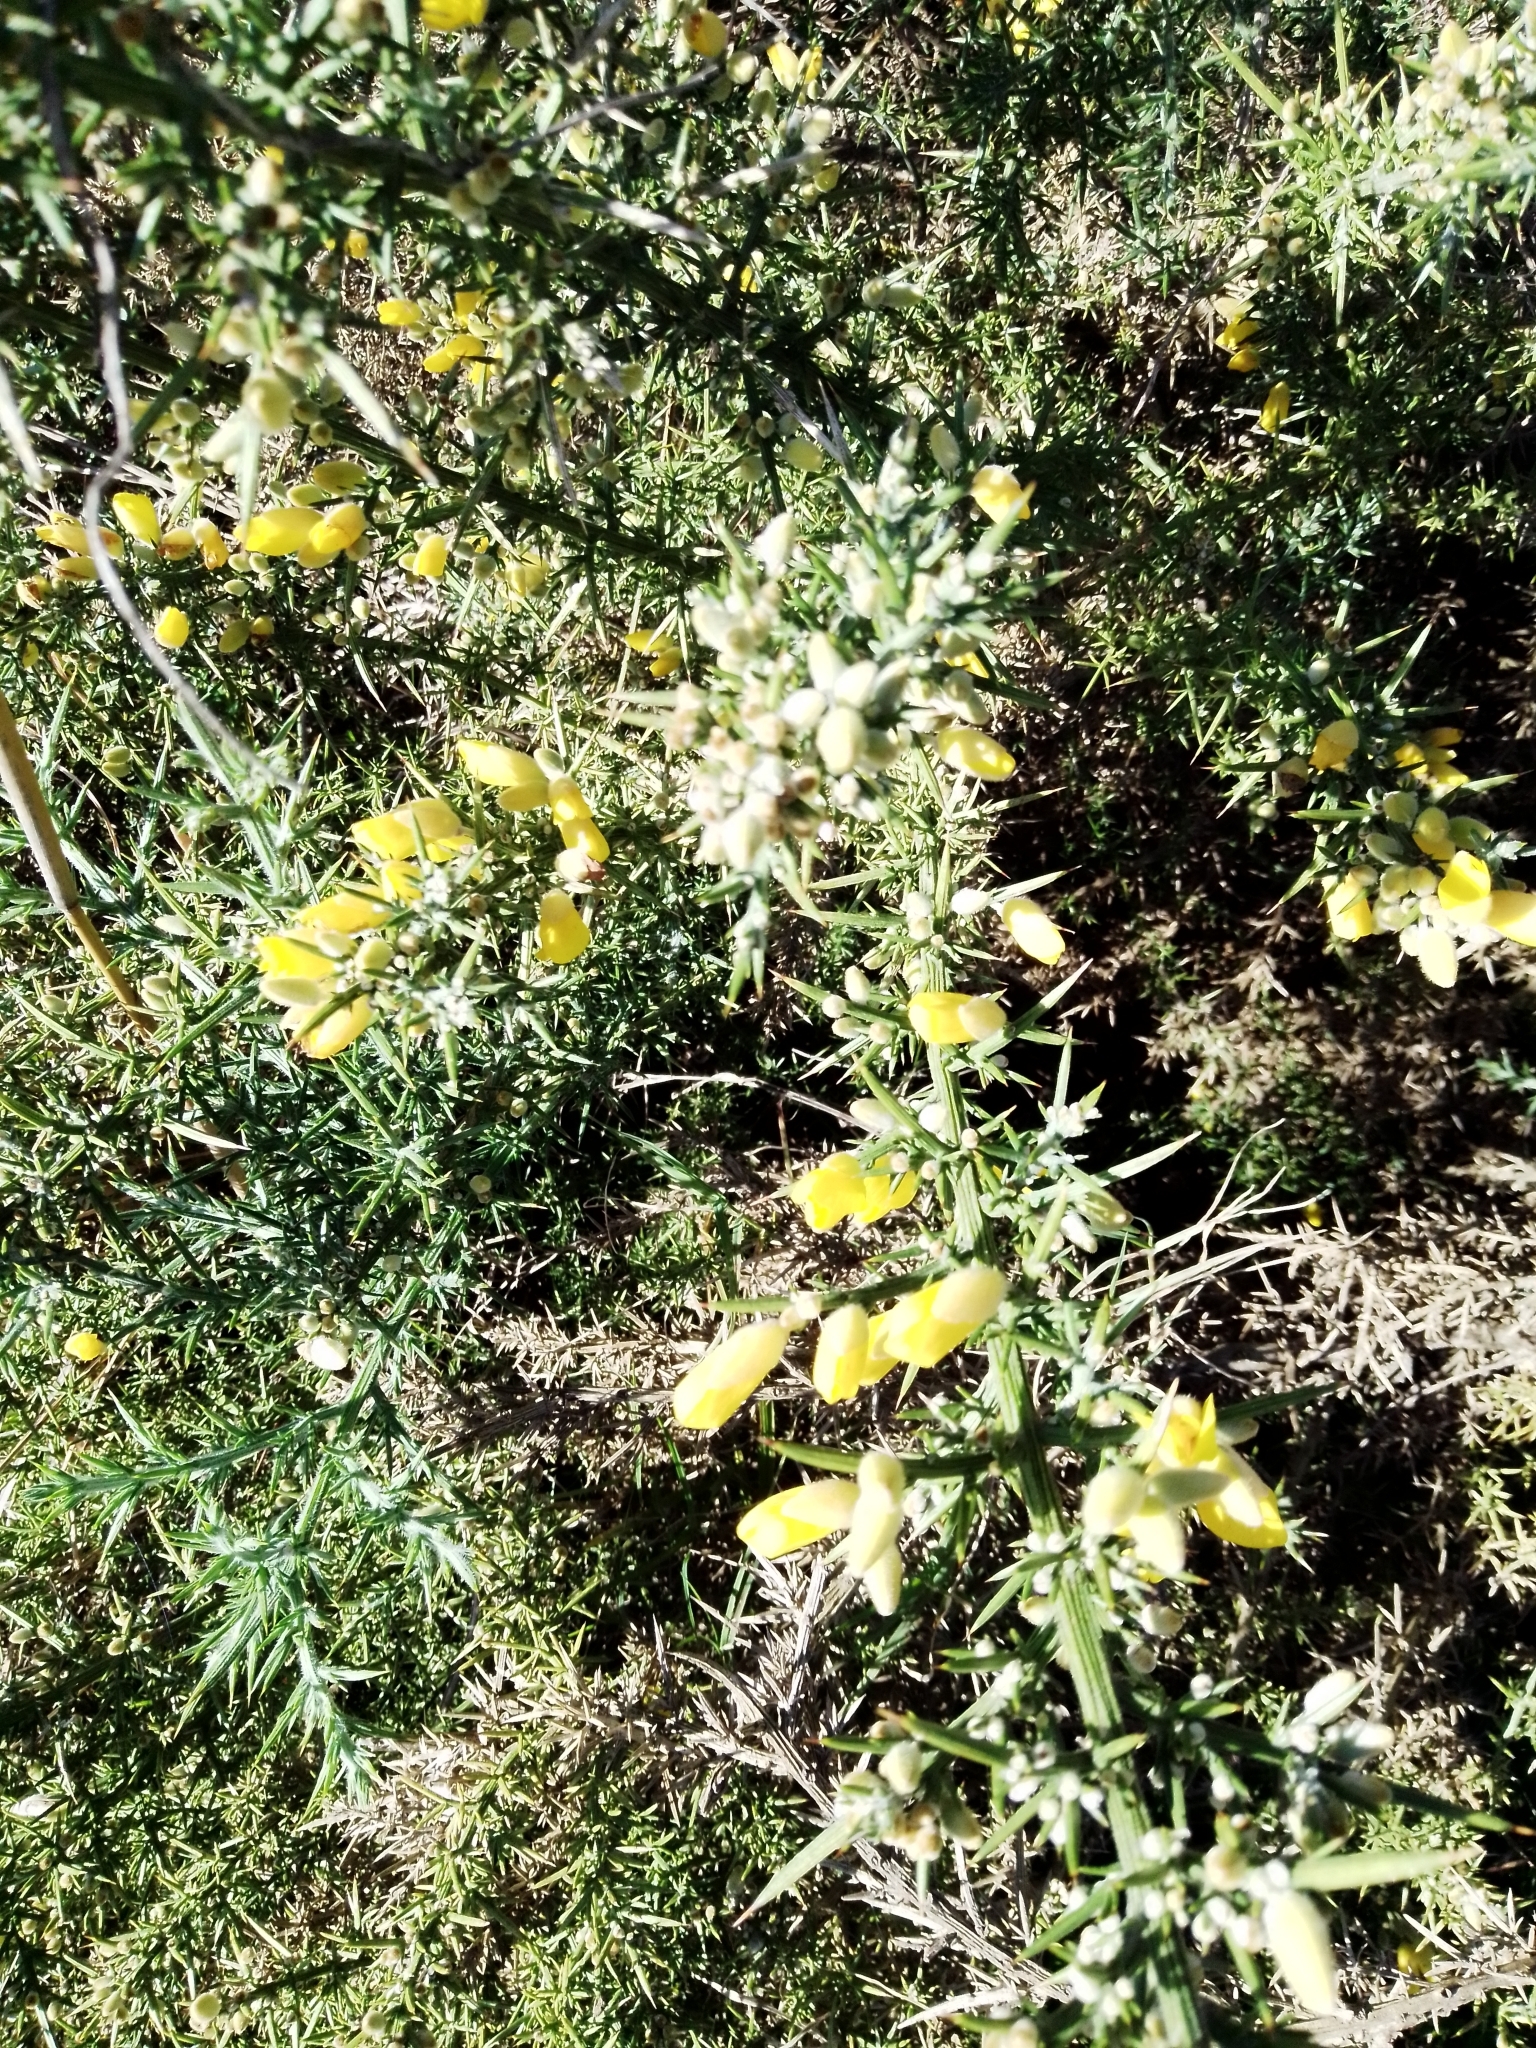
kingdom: Plantae
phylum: Tracheophyta
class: Magnoliopsida
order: Fabales
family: Fabaceae
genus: Ulex
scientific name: Ulex europaeus
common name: Common gorse
